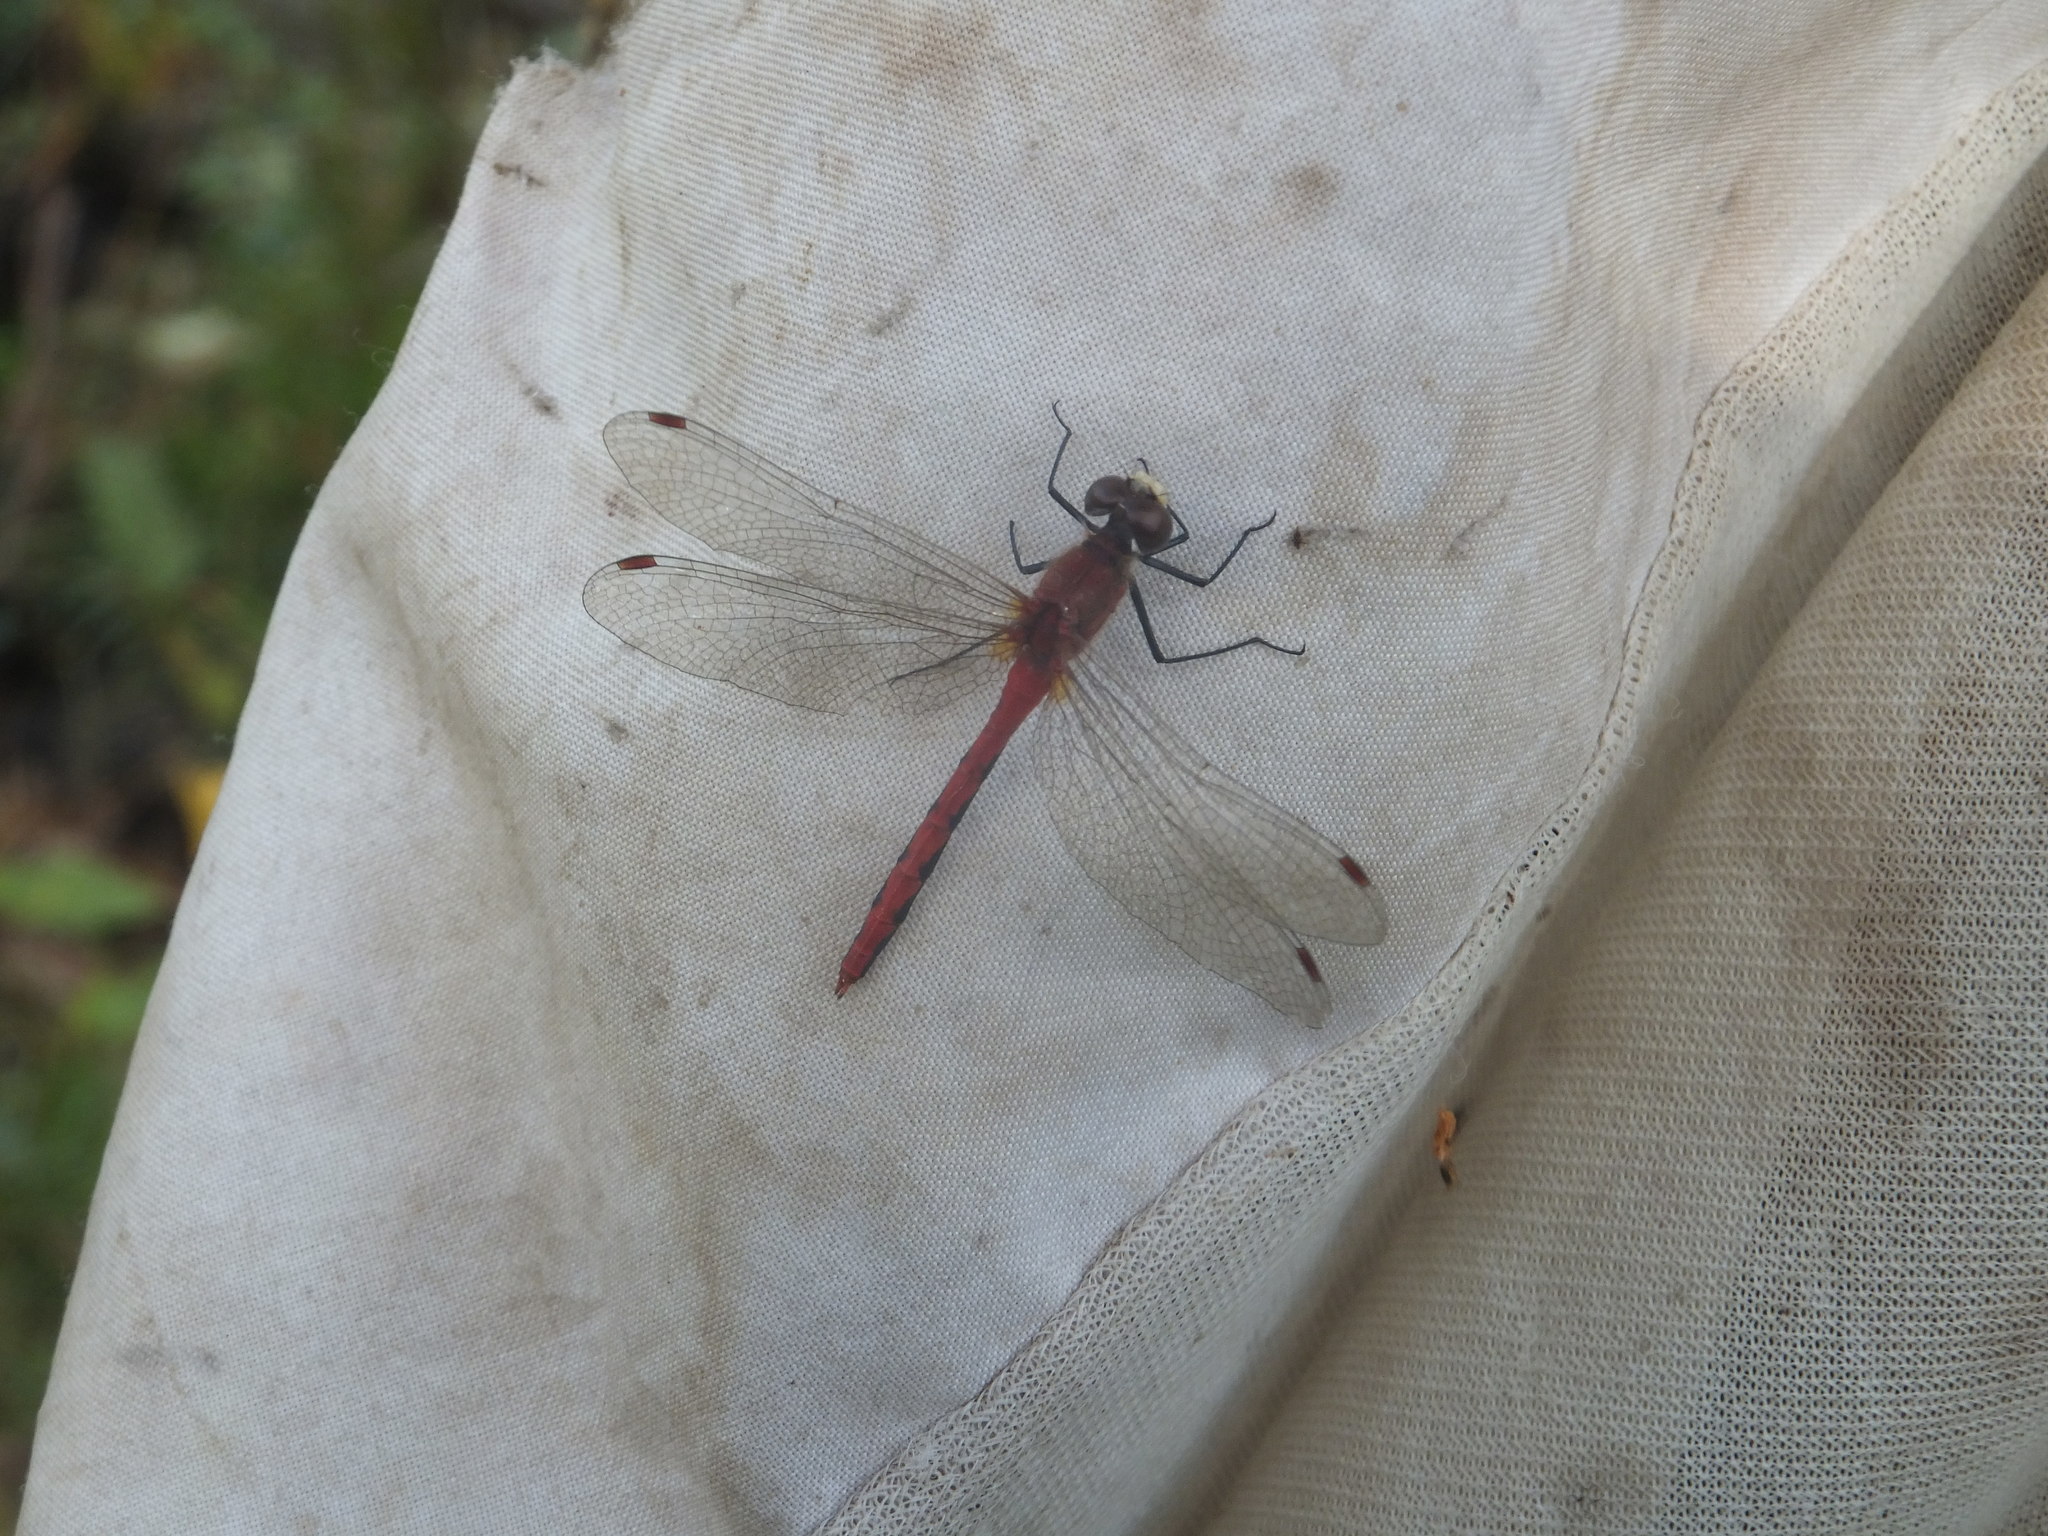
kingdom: Animalia
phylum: Arthropoda
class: Insecta
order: Odonata
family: Libellulidae
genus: Sympetrum
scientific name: Sympetrum obtrusum
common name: White-faced meadowhawk
